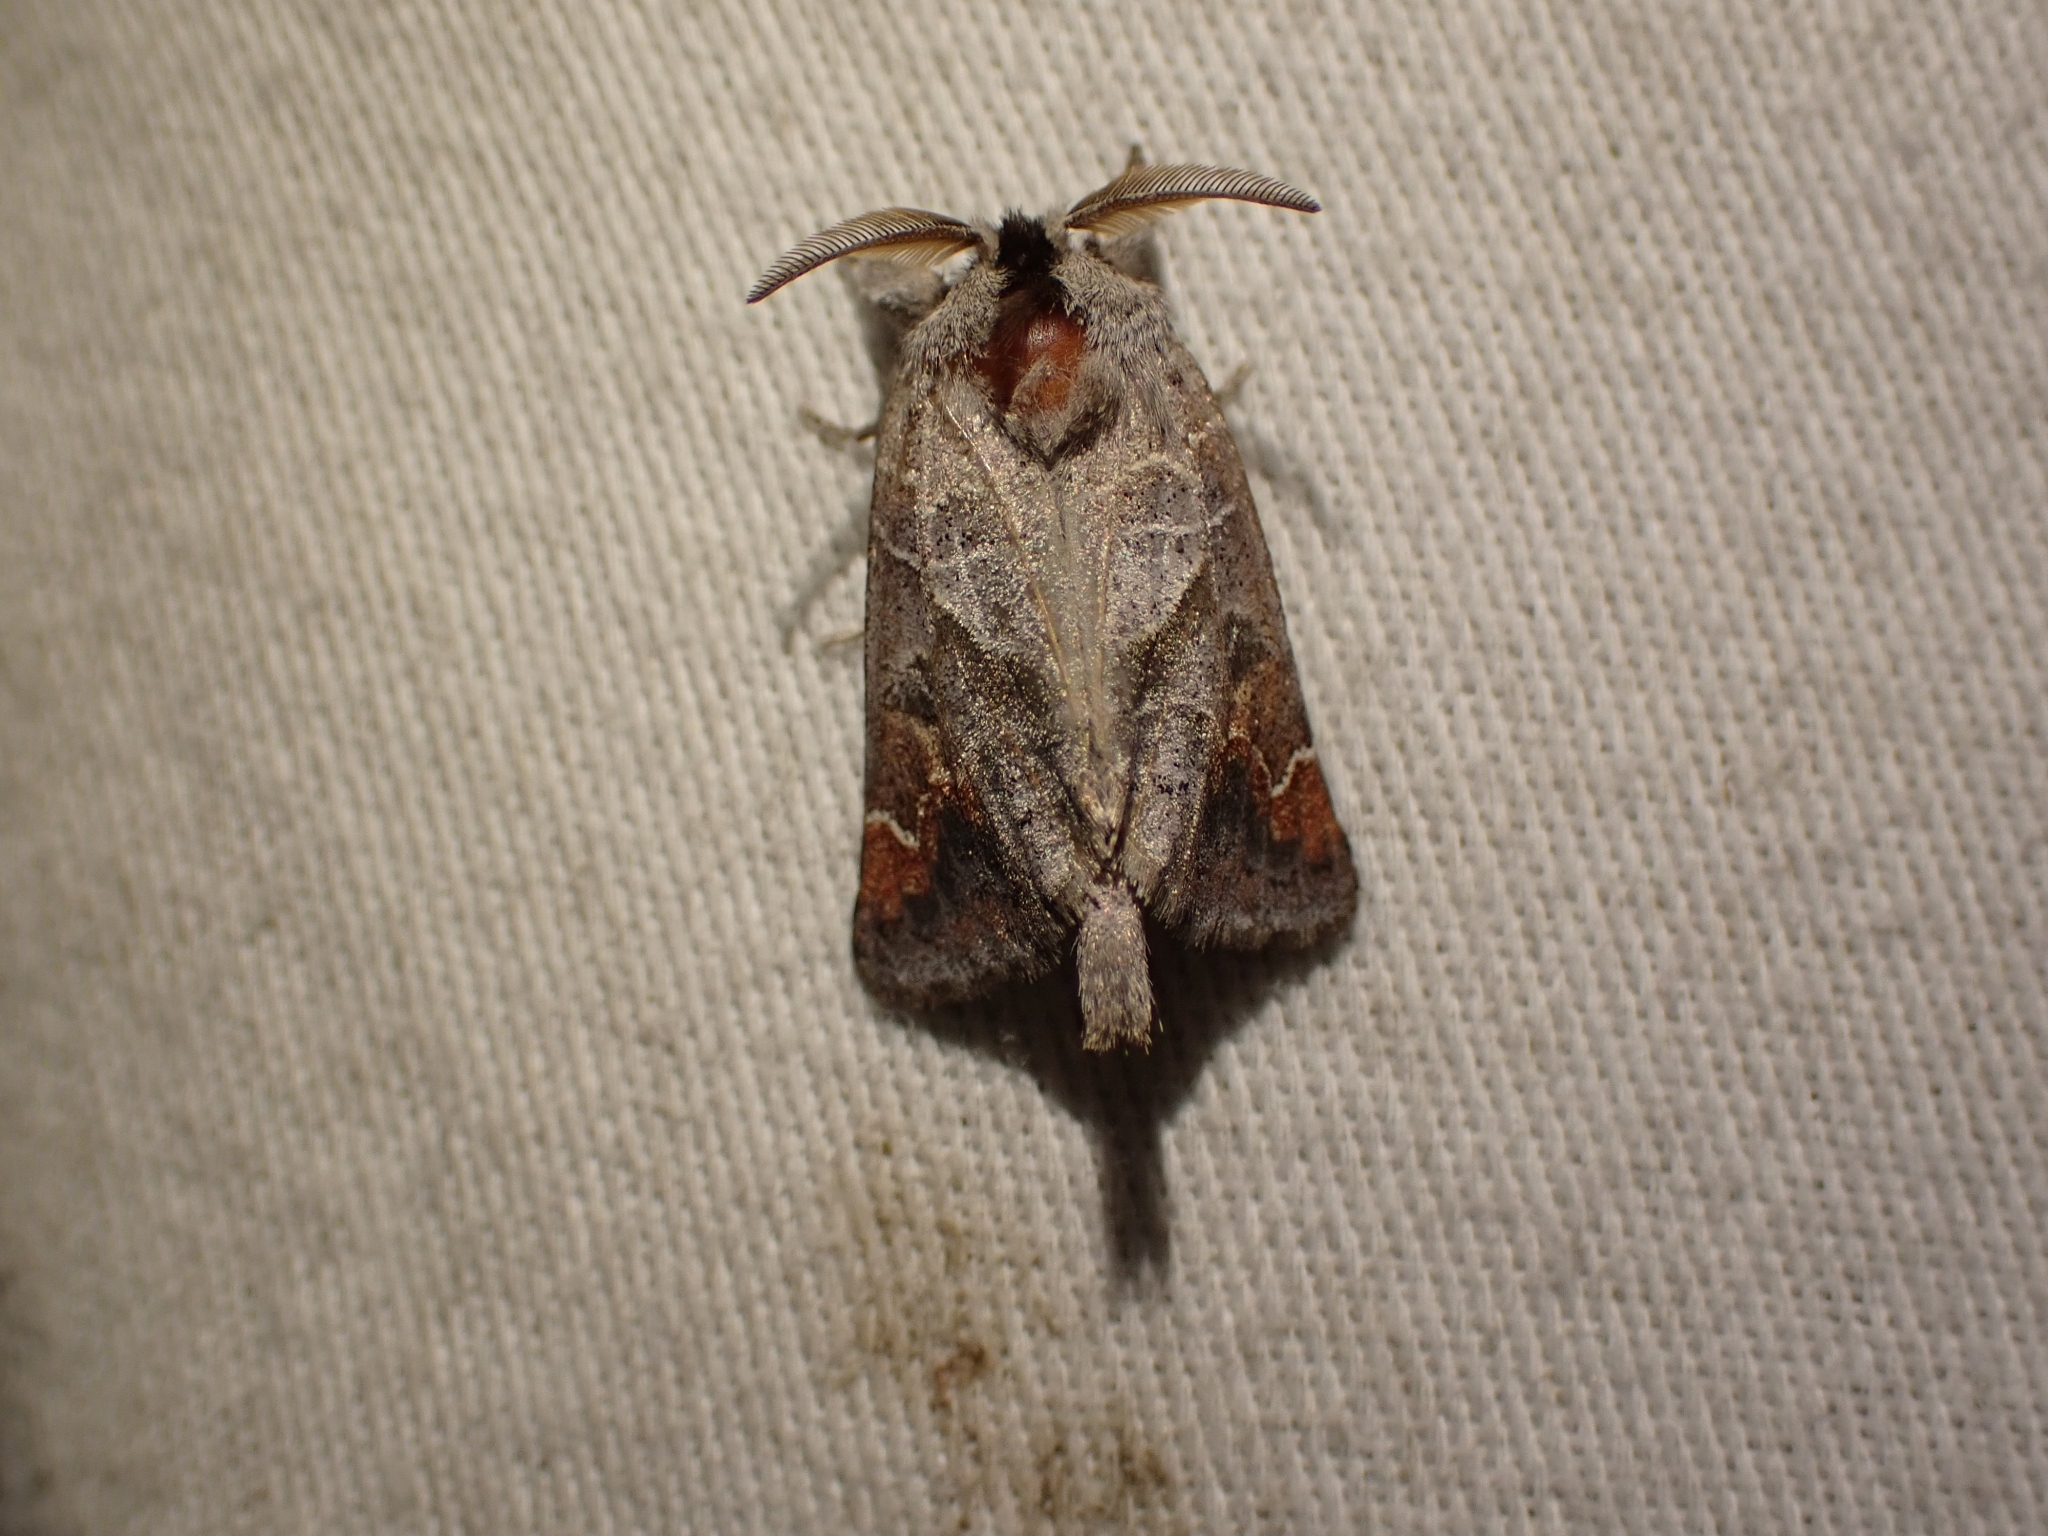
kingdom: Animalia
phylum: Arthropoda
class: Insecta
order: Lepidoptera
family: Notodontidae
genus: Clostera
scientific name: Clostera apicalis
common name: Apical prominent
